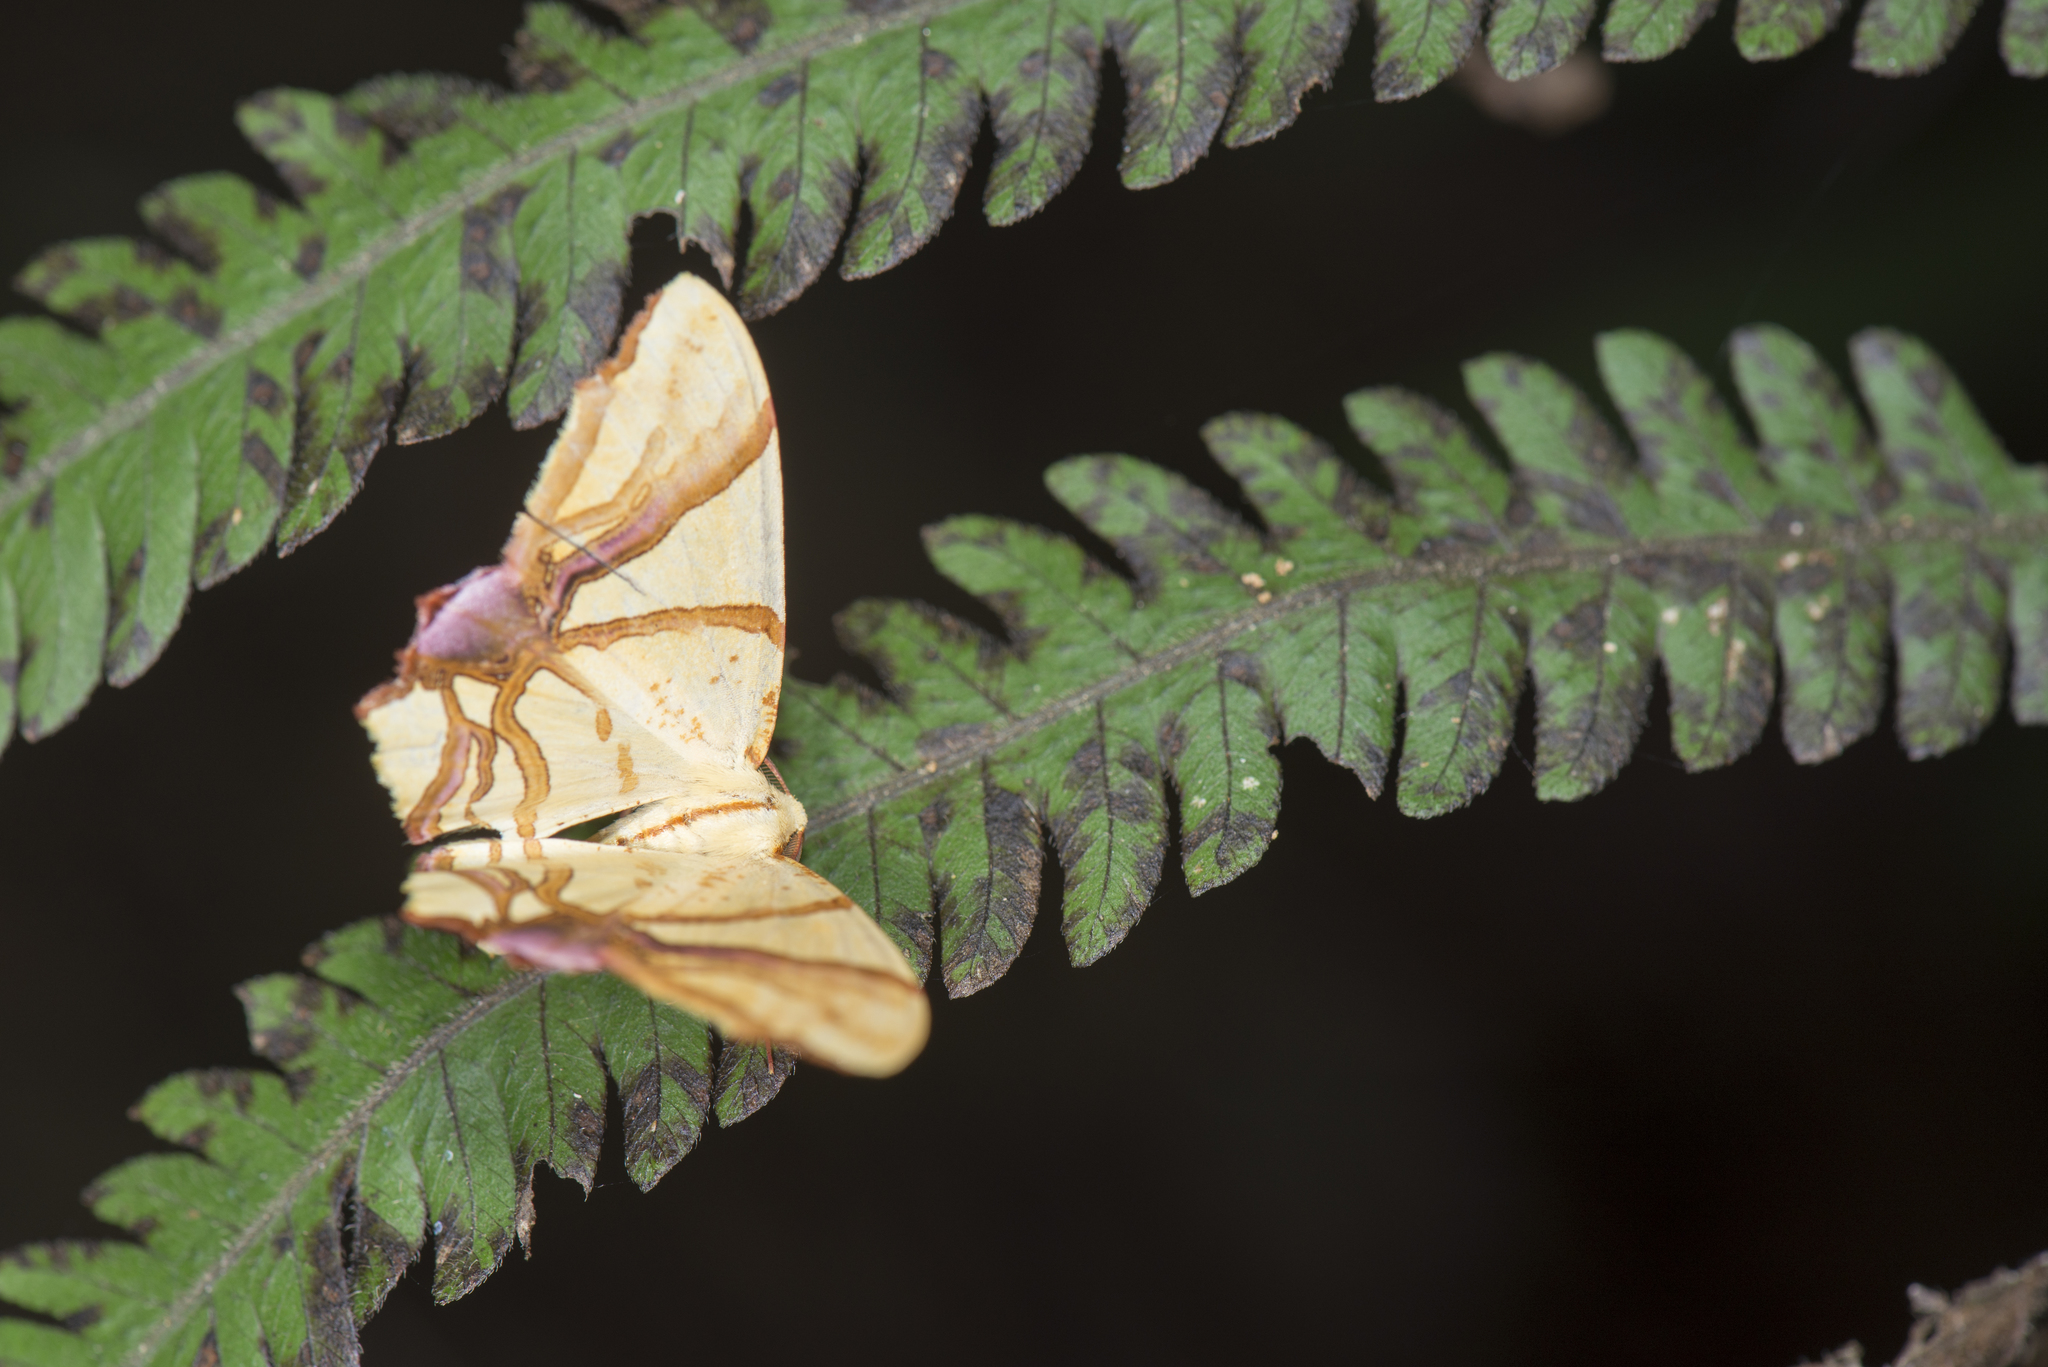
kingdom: Animalia
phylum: Arthropoda
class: Insecta
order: Lepidoptera
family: Geometridae
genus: Trotocraspeda
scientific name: Trotocraspeda divaricata
